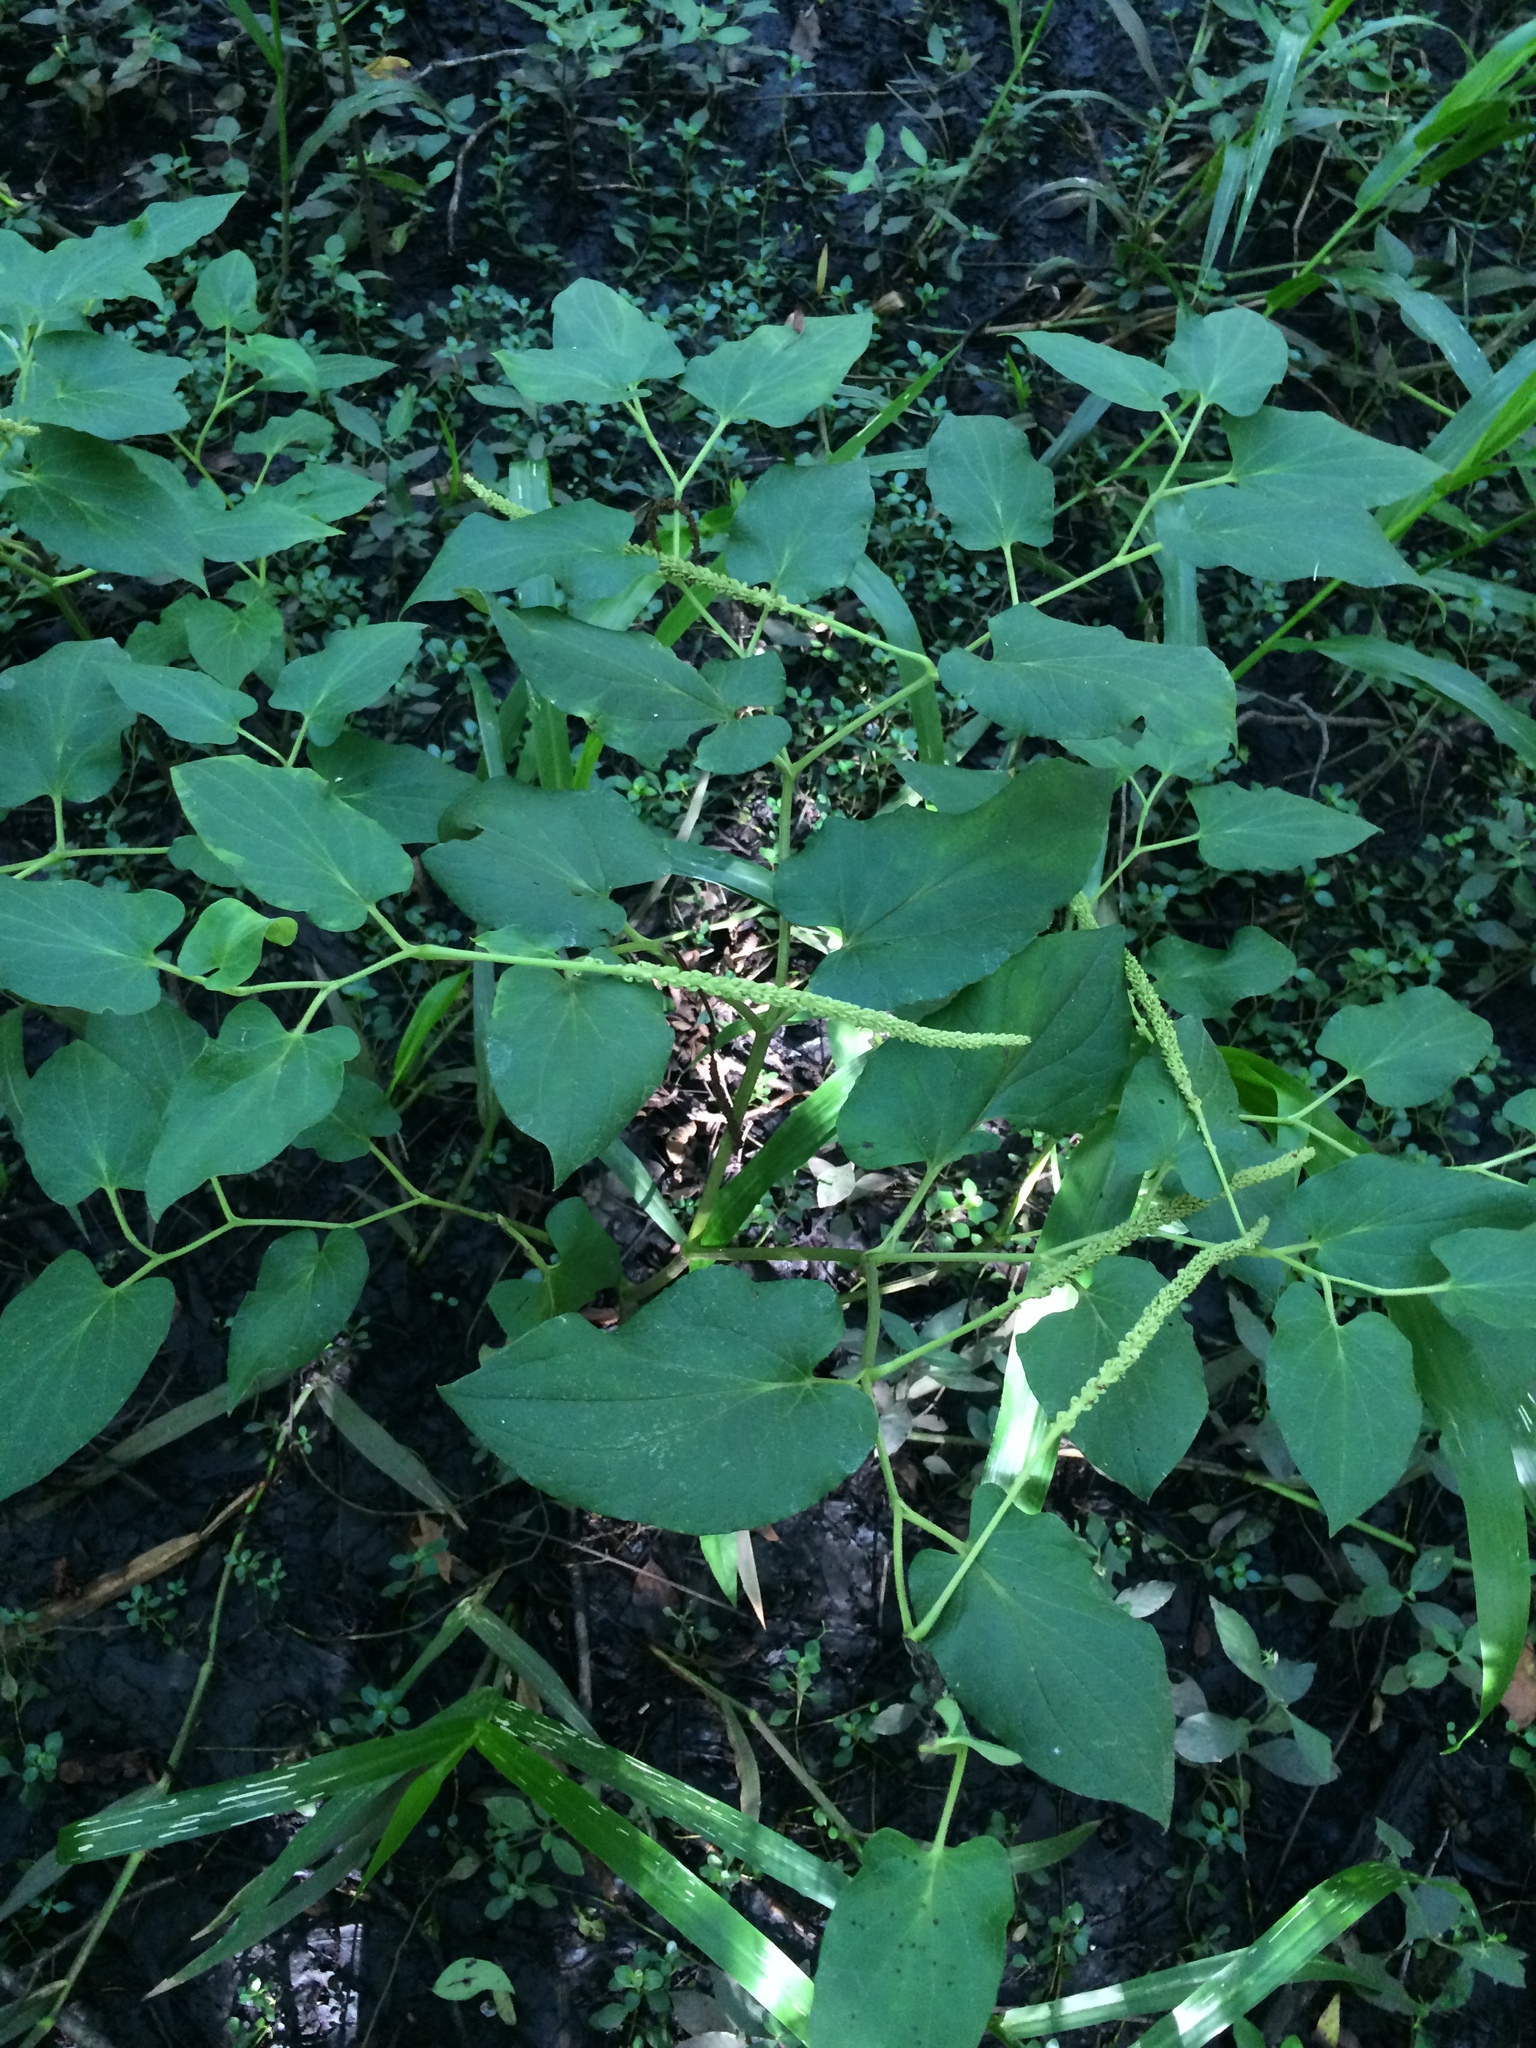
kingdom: Plantae
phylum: Tracheophyta
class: Magnoliopsida
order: Piperales
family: Saururaceae
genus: Saururus
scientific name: Saururus cernuus
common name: Lizard's-tail
